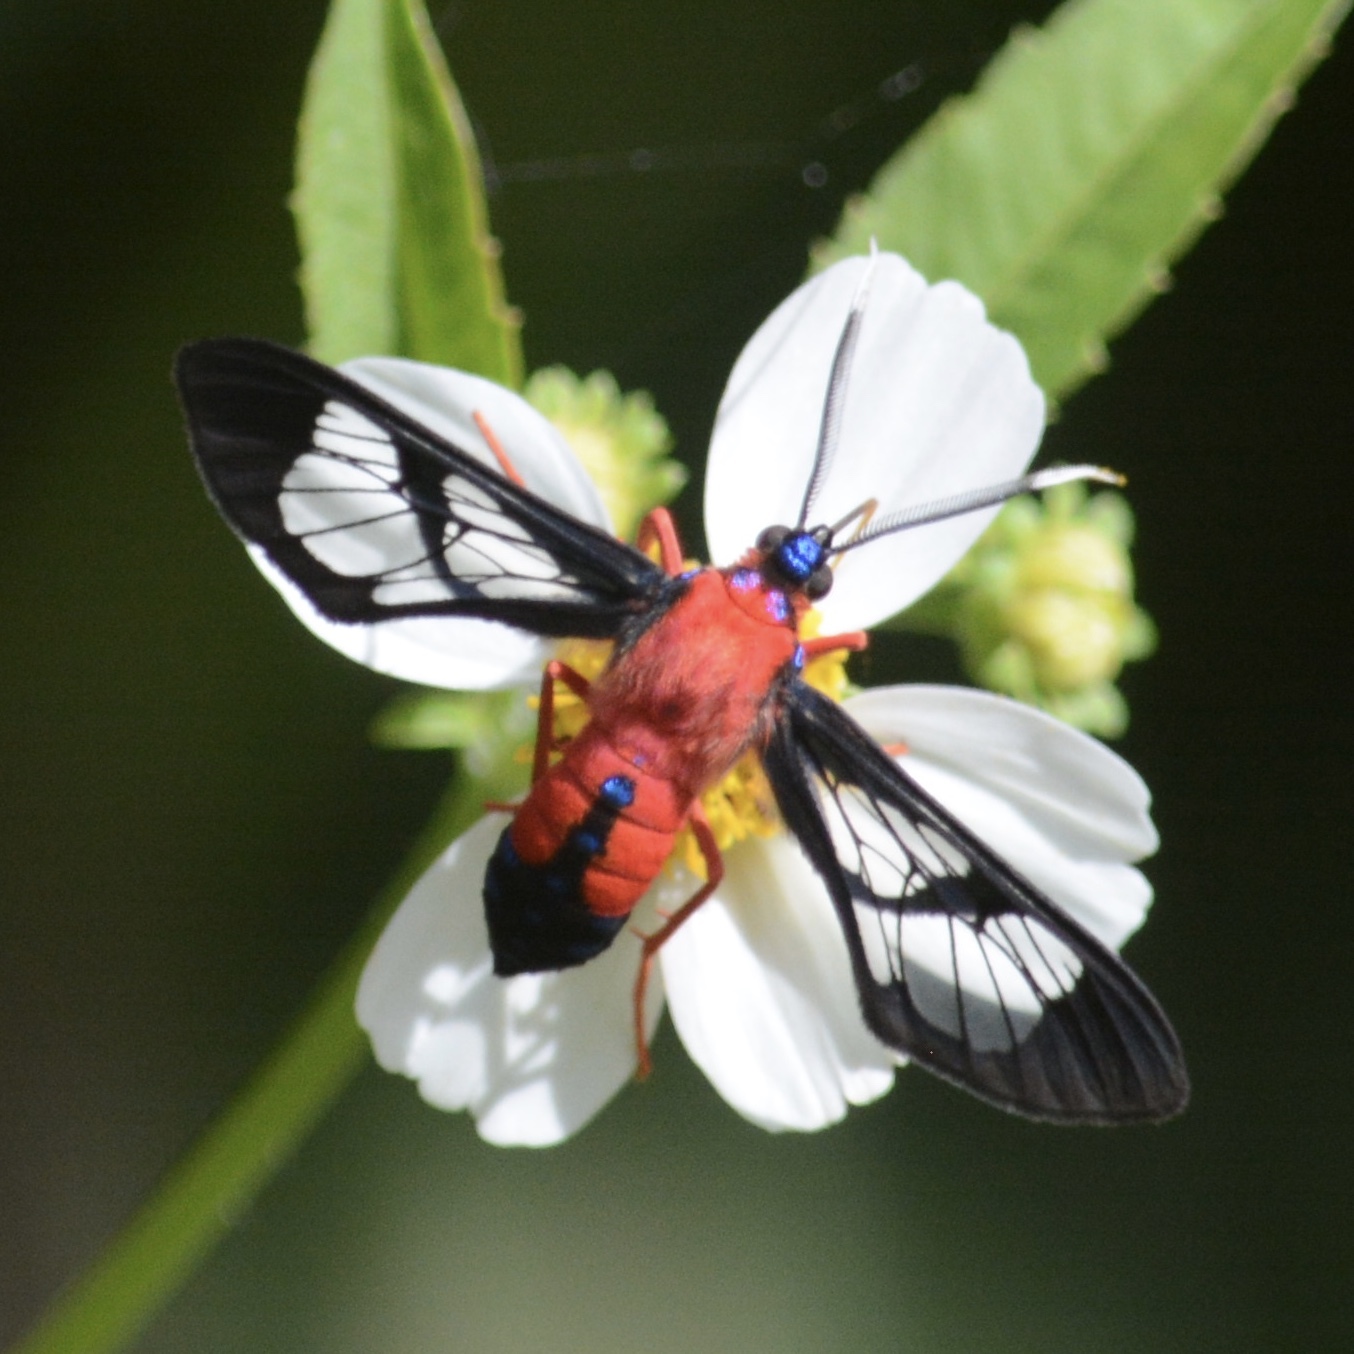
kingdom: Animalia
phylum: Arthropoda
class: Insecta
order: Lepidoptera
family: Erebidae
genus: Cosmosoma
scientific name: Cosmosoma myrodora
